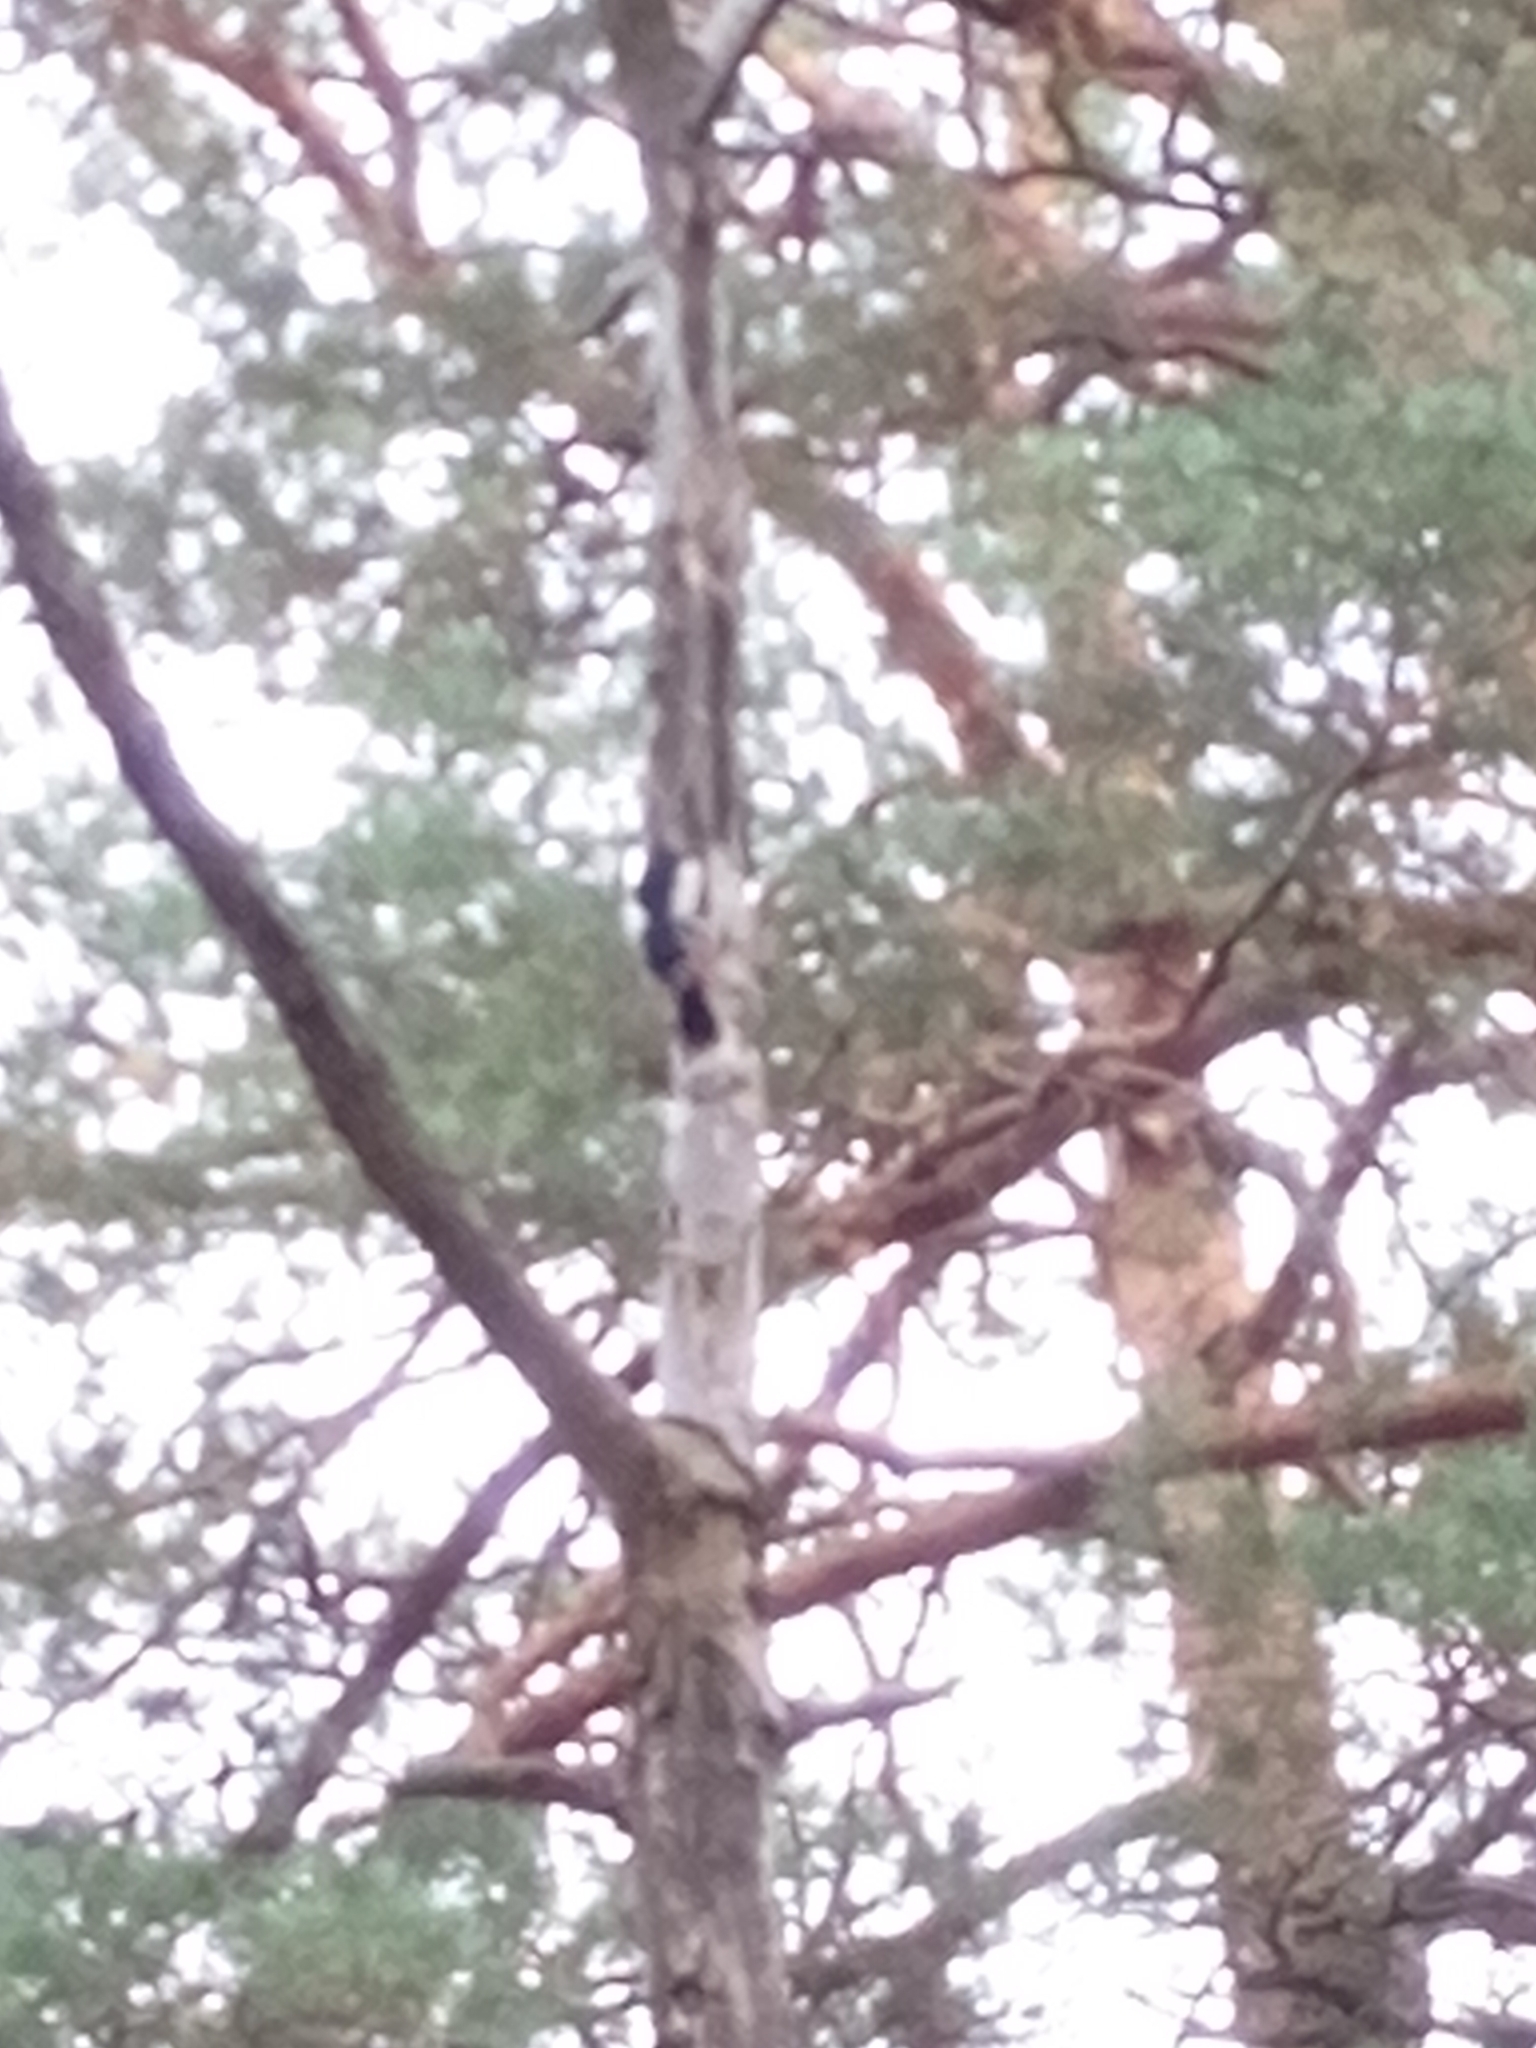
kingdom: Animalia
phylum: Chordata
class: Aves
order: Piciformes
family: Picidae
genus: Dendrocopos
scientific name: Dendrocopos major
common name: Great spotted woodpecker
